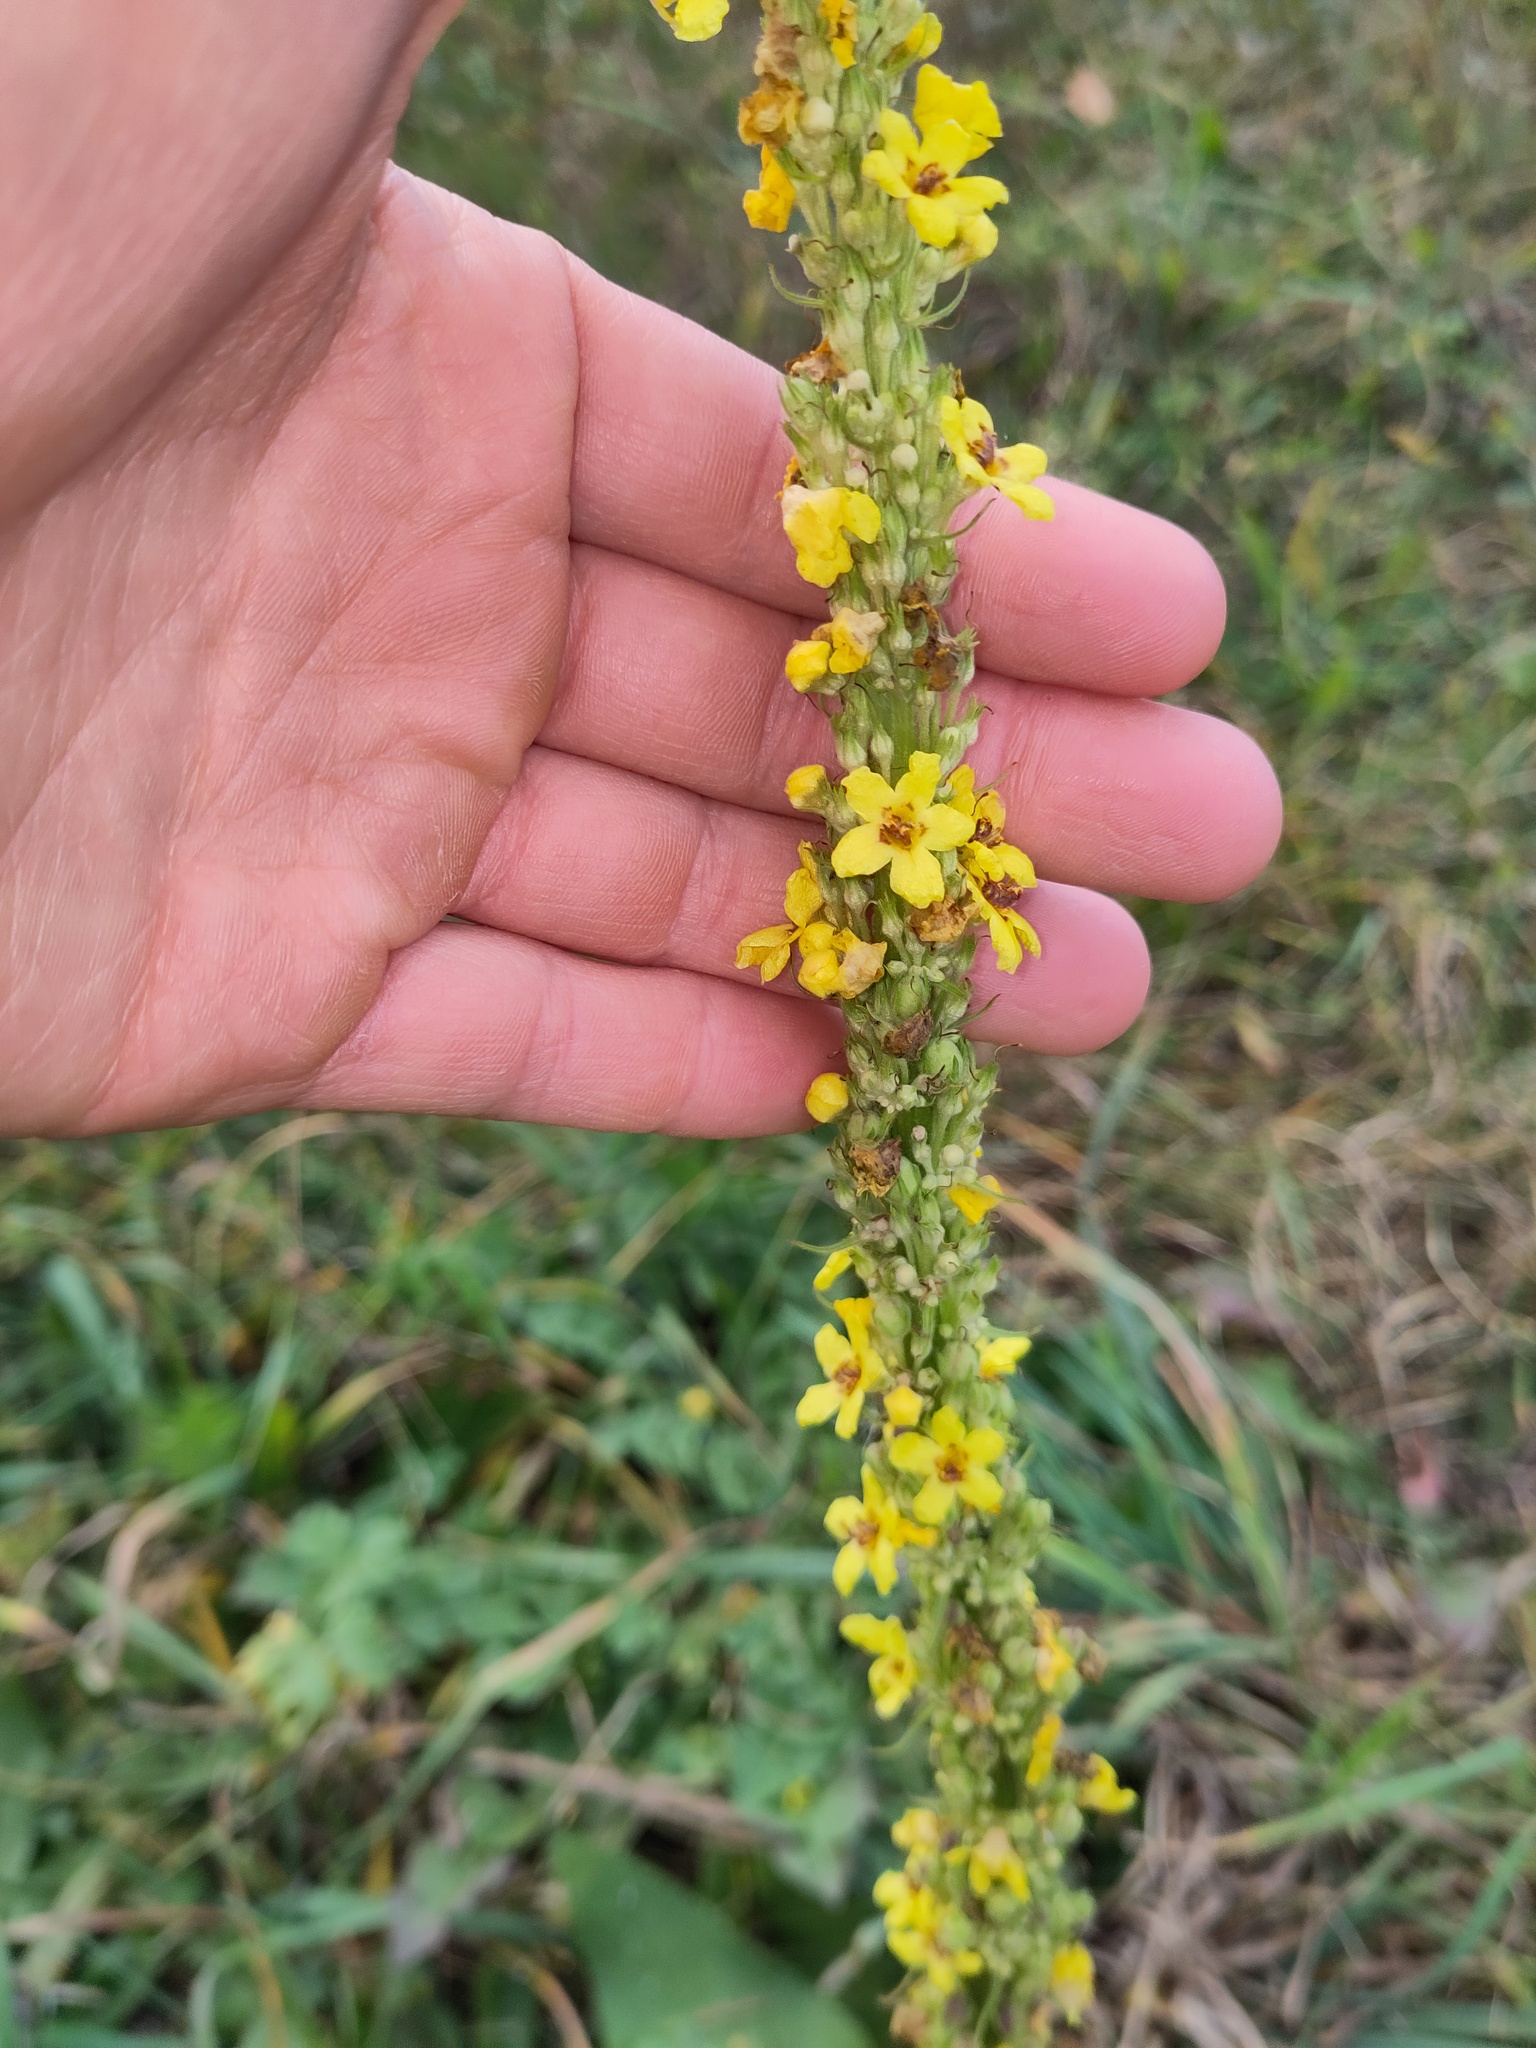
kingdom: Plantae
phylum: Tracheophyta
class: Magnoliopsida
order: Lamiales
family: Scrophulariaceae
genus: Verbascum
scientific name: Verbascum nigrum
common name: Dark mullein
